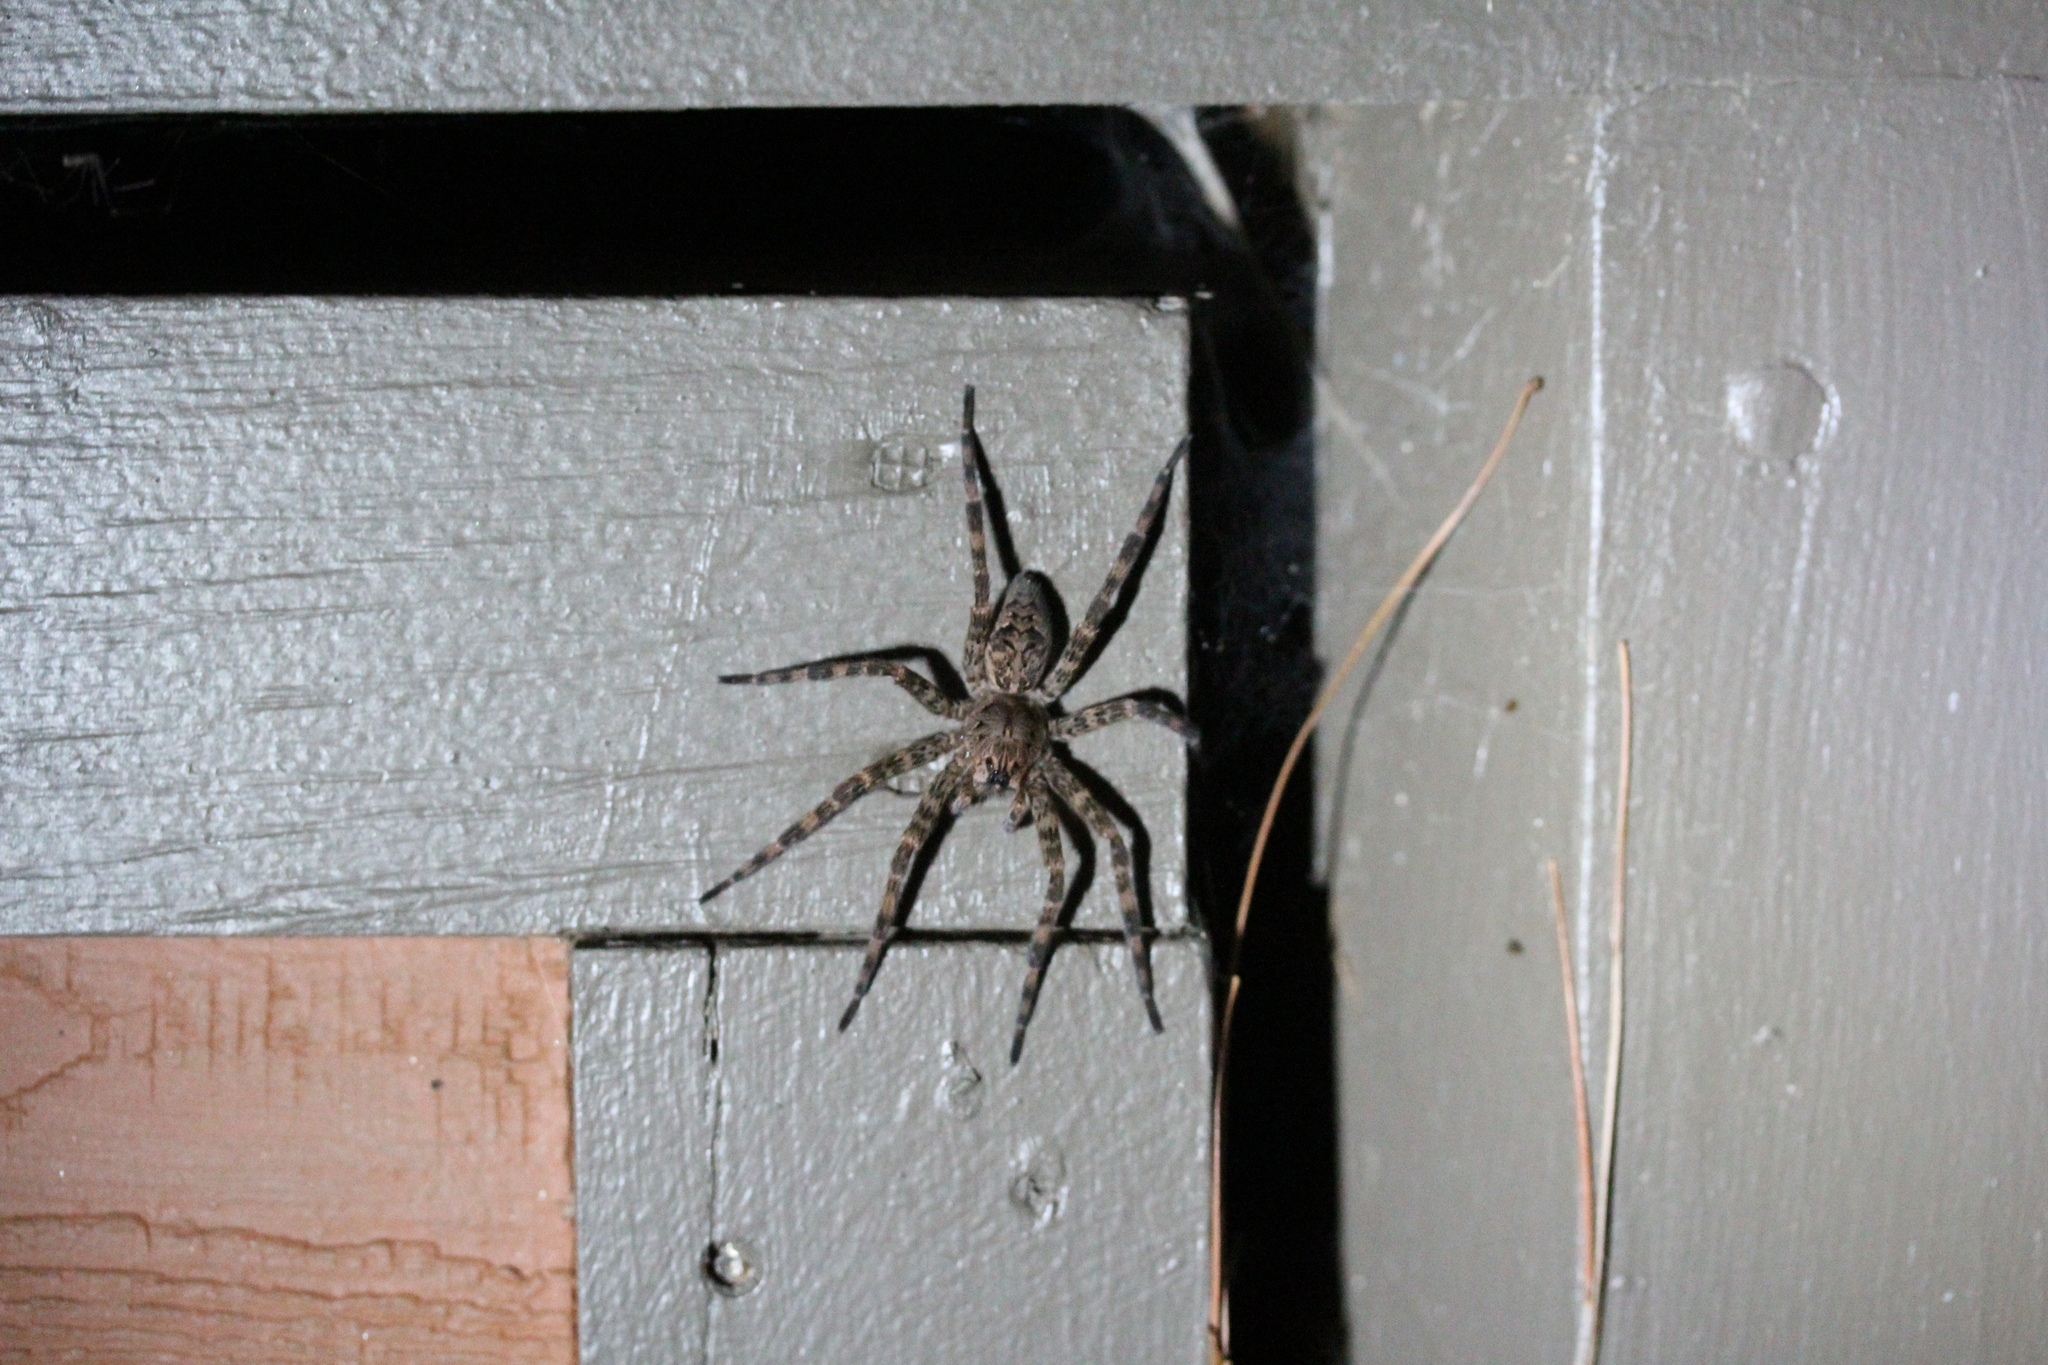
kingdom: Animalia
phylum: Arthropoda
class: Arachnida
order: Araneae
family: Pisauridae
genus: Dolomedes
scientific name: Dolomedes tenebrosus
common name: Dark fishing spider
